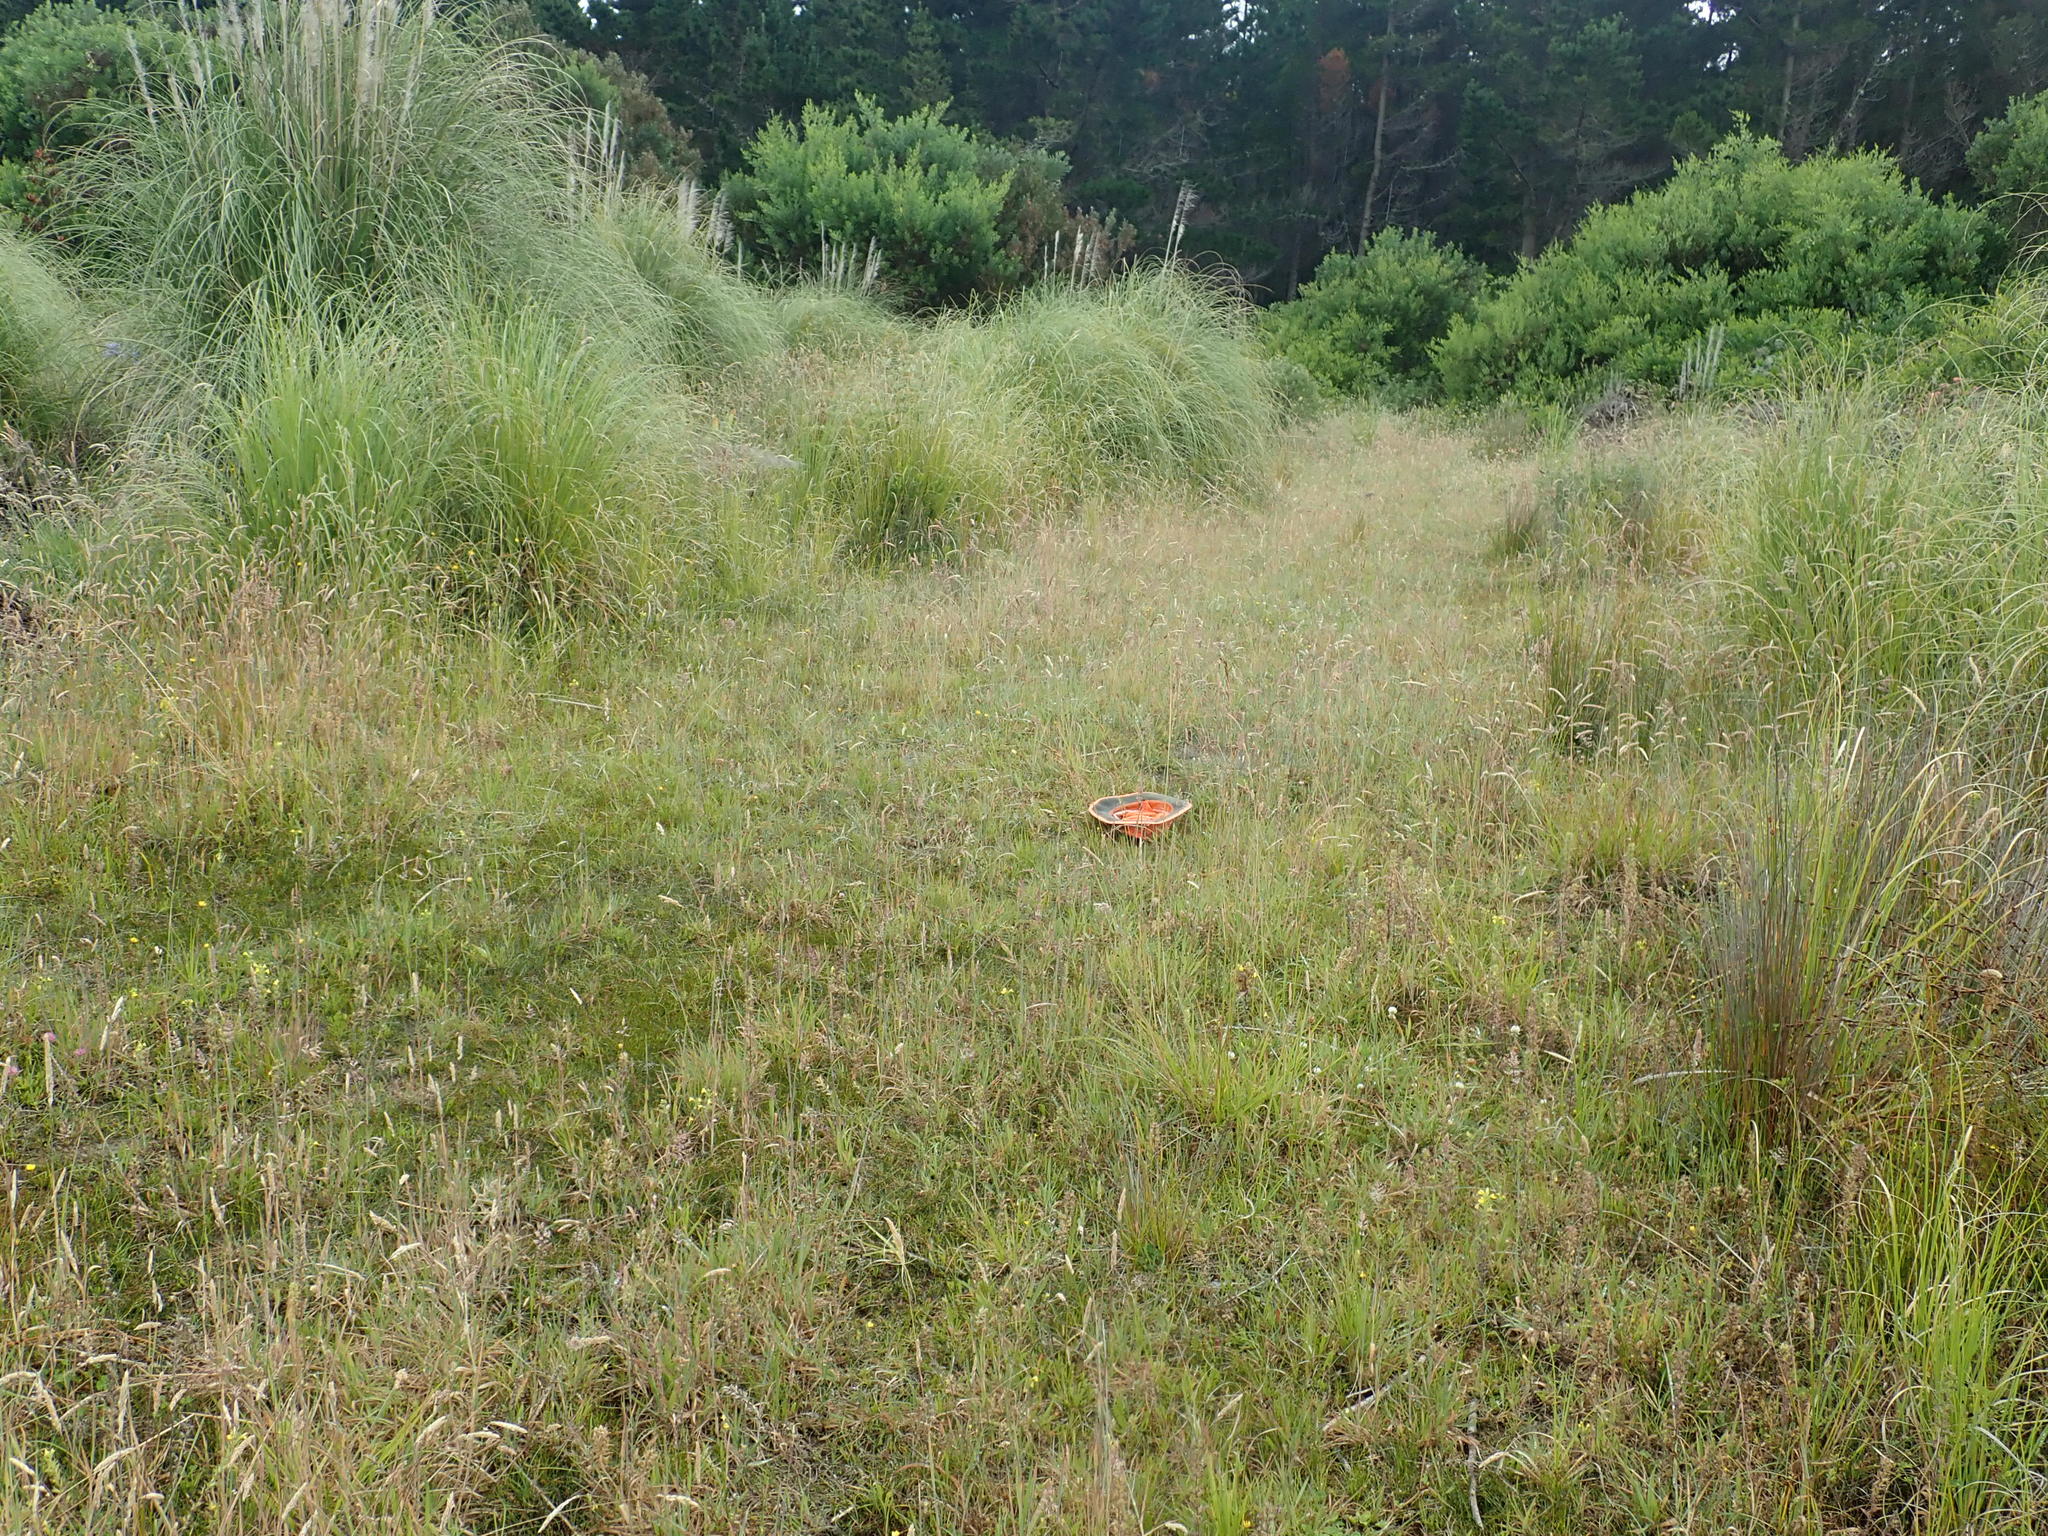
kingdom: Plantae
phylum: Tracheophyta
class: Magnoliopsida
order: Asterales
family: Goodeniaceae
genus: Goodenia
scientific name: Goodenia heenanii
